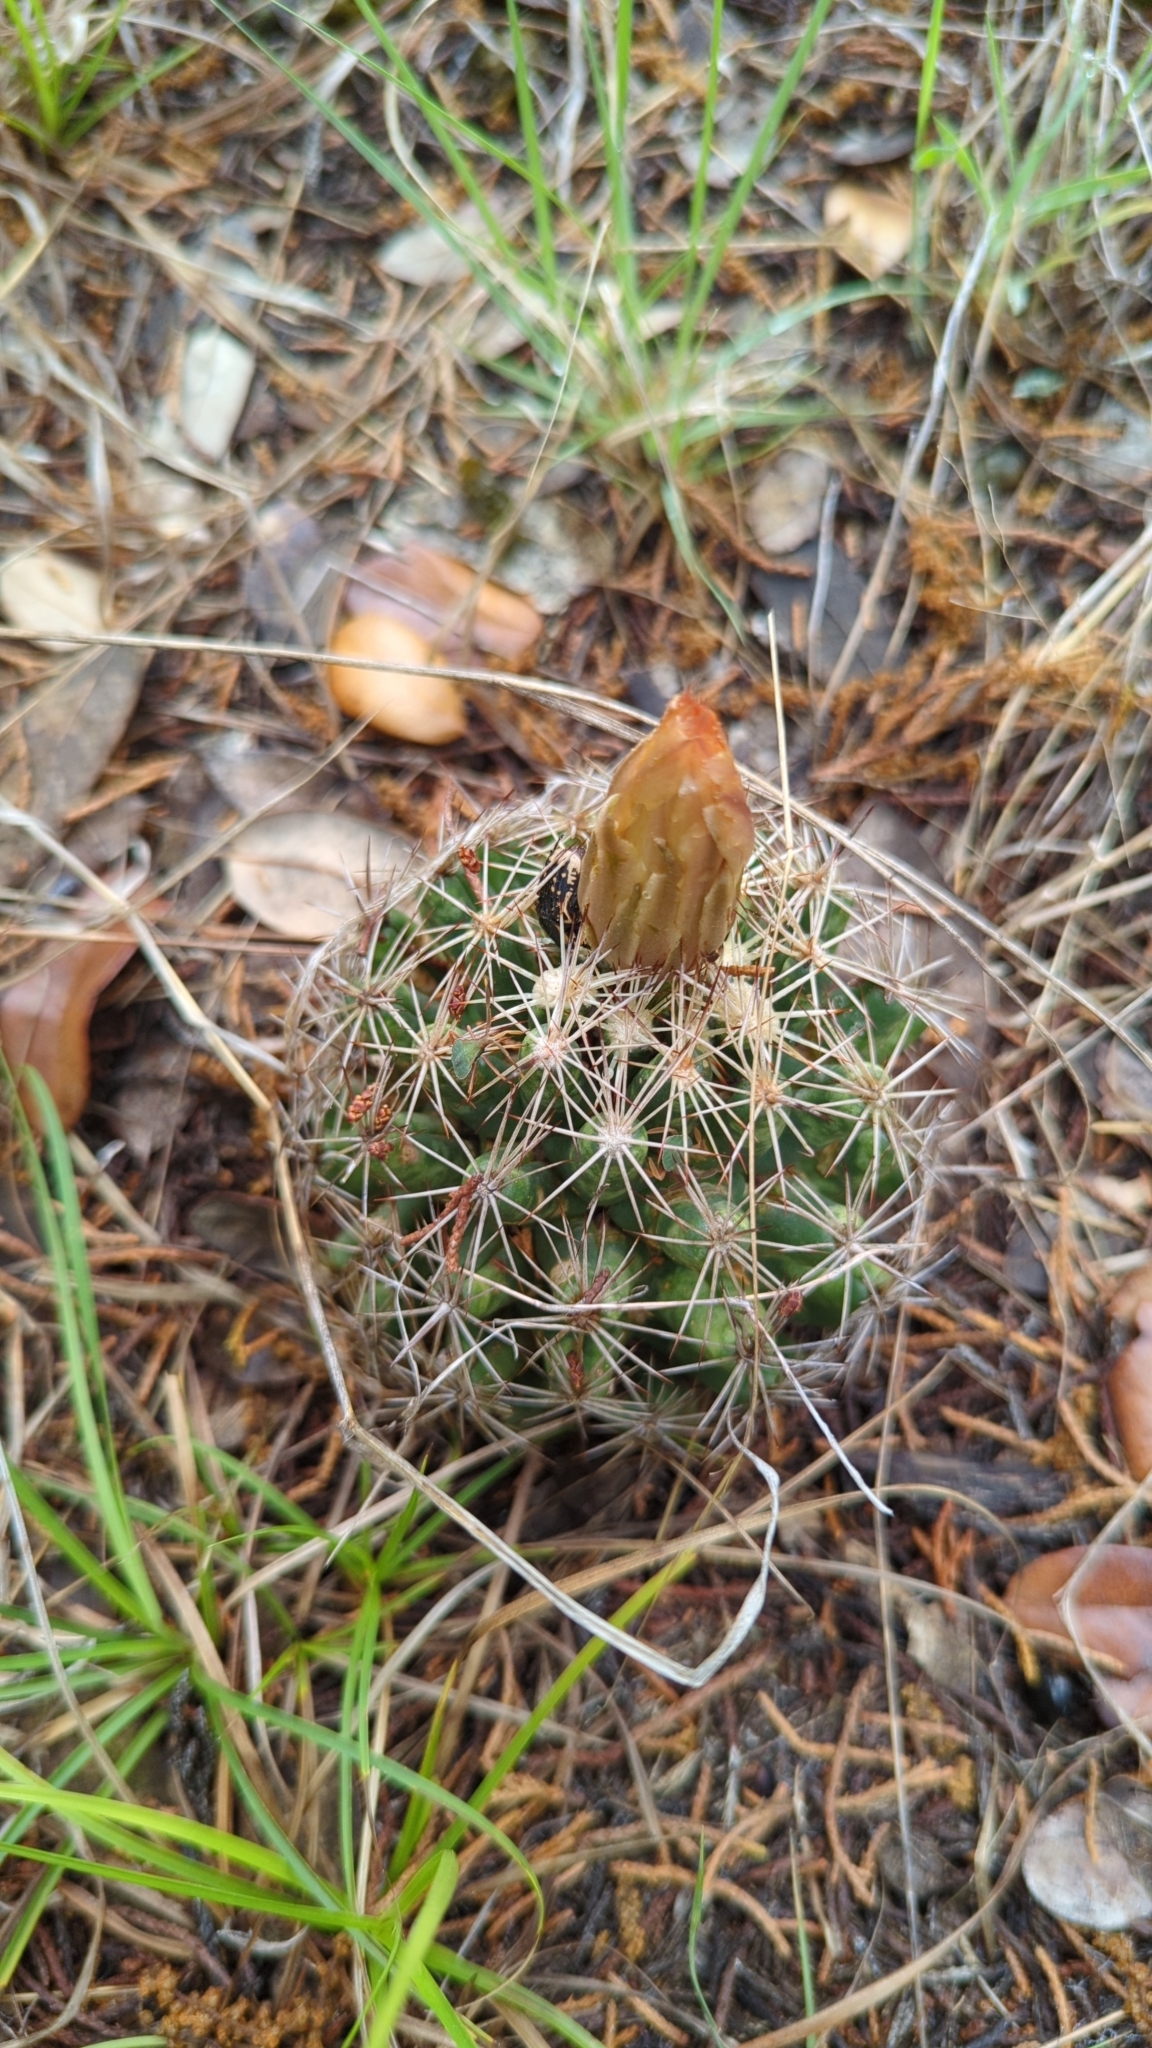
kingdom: Plantae
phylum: Tracheophyta
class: Magnoliopsida
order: Caryophyllales
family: Cactaceae
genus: Coryphantha
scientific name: Coryphantha sulcata
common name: Finger cactus
